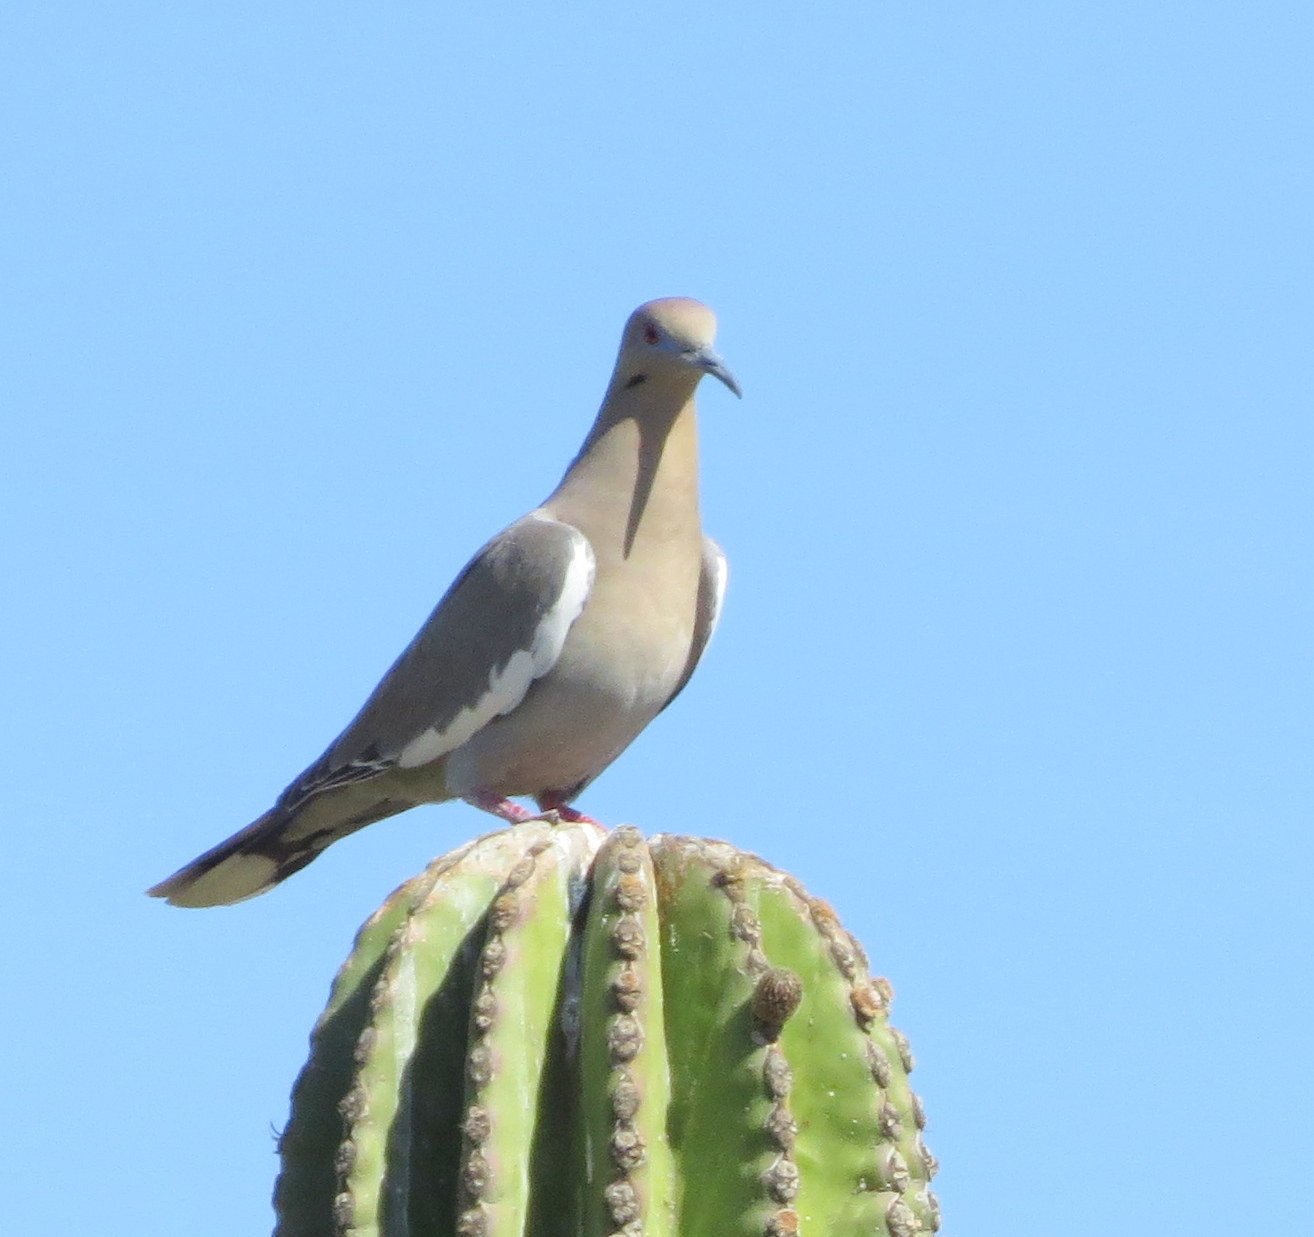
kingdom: Animalia
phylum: Chordata
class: Aves
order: Columbiformes
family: Columbidae
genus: Zenaida
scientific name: Zenaida asiatica
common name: White-winged dove
